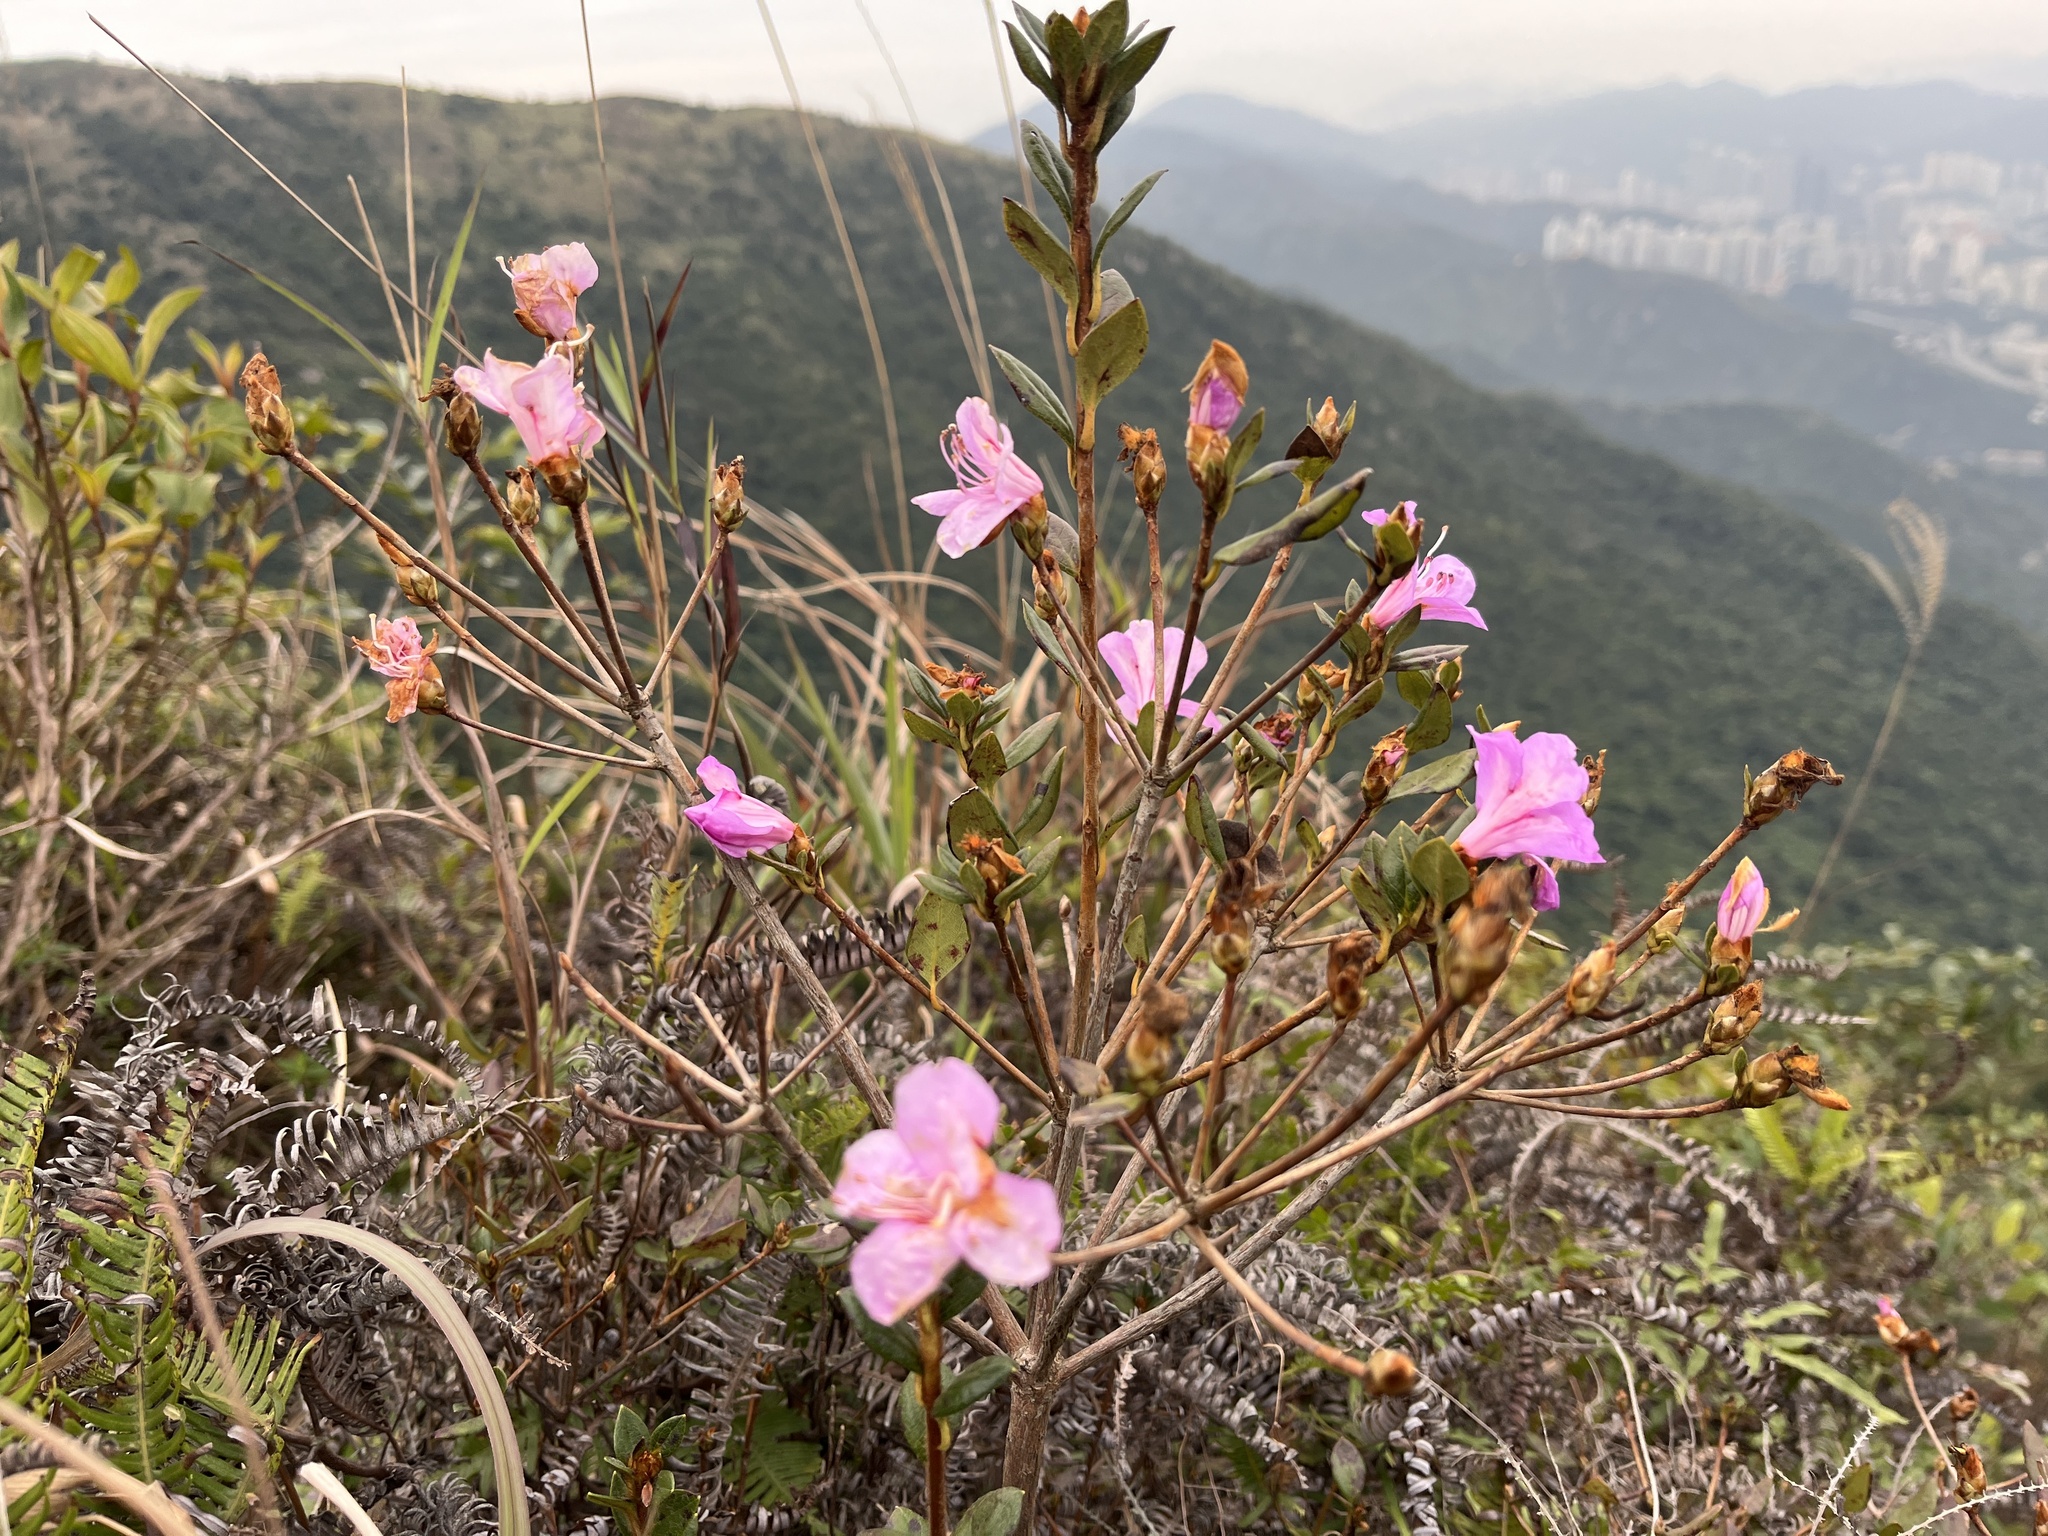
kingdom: Plantae
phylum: Tracheophyta
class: Magnoliopsida
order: Ericales
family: Ericaceae
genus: Rhododendron
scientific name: Rhododendron farrerae
